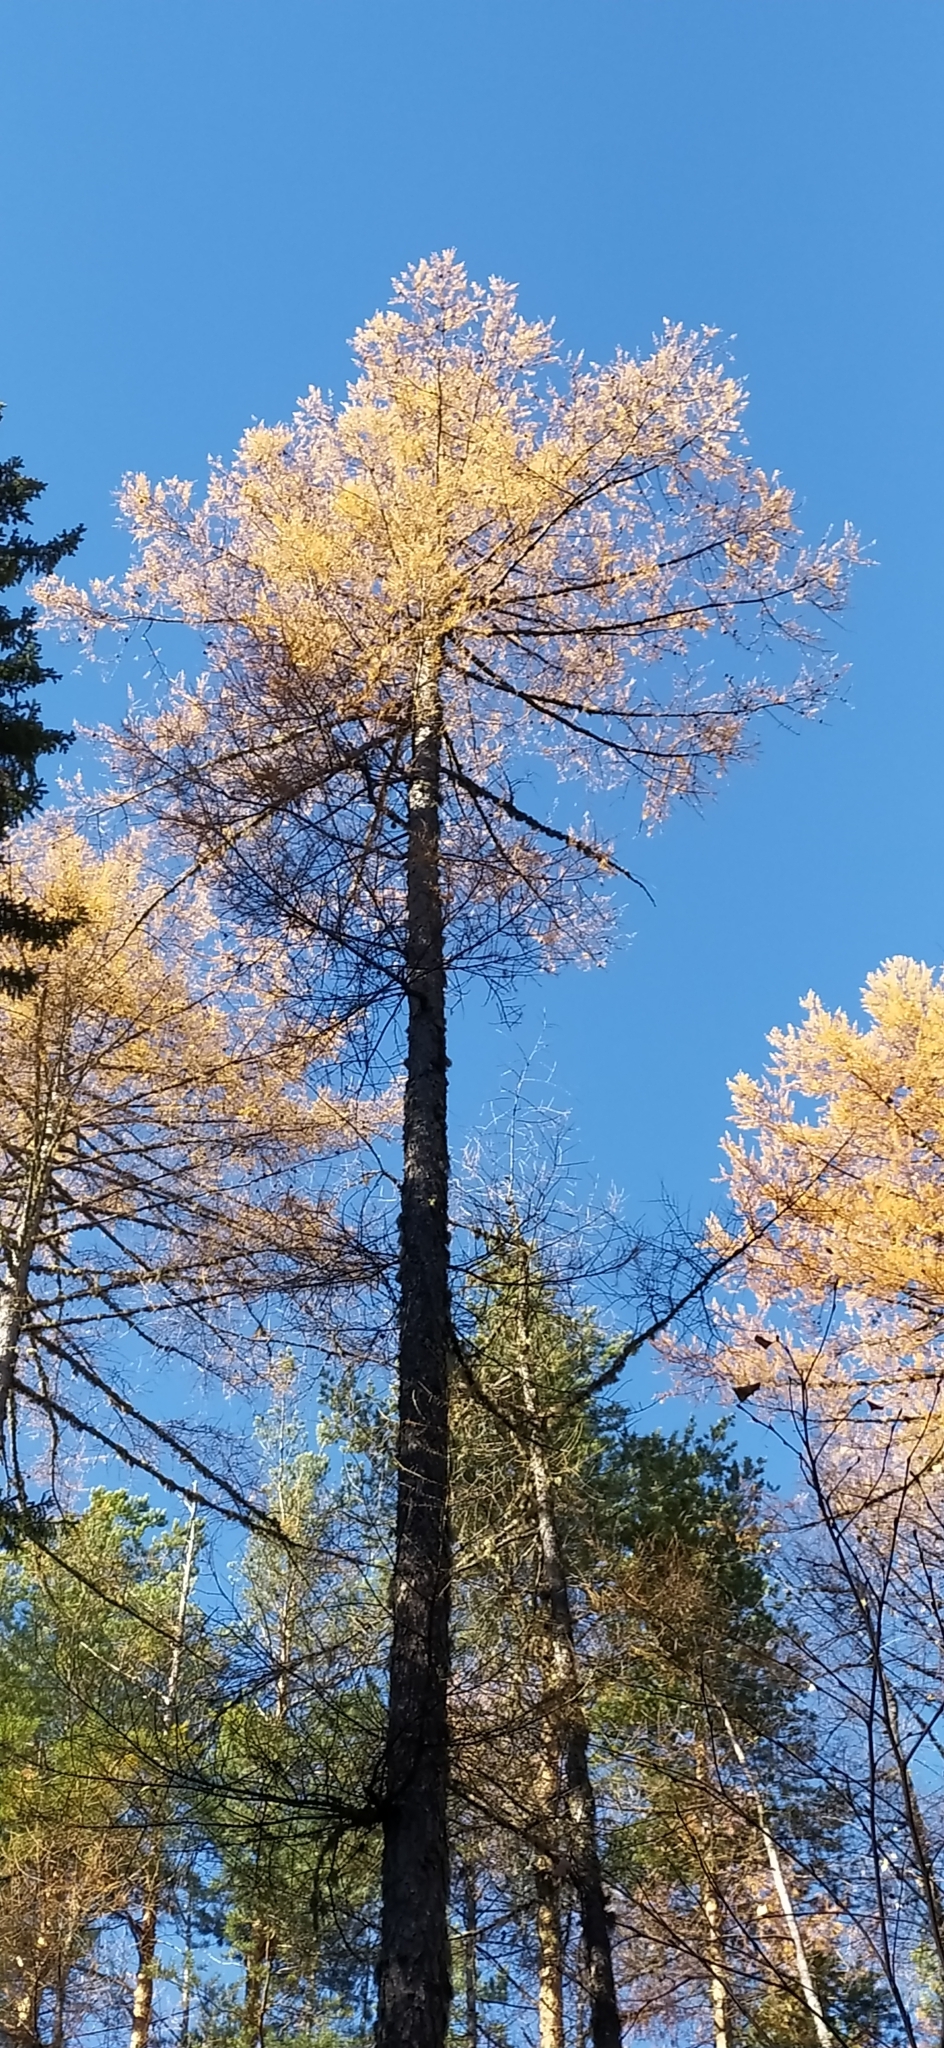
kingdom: Plantae
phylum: Tracheophyta
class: Pinopsida
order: Pinales
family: Pinaceae
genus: Larix
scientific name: Larix sibirica
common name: Siberian larch
